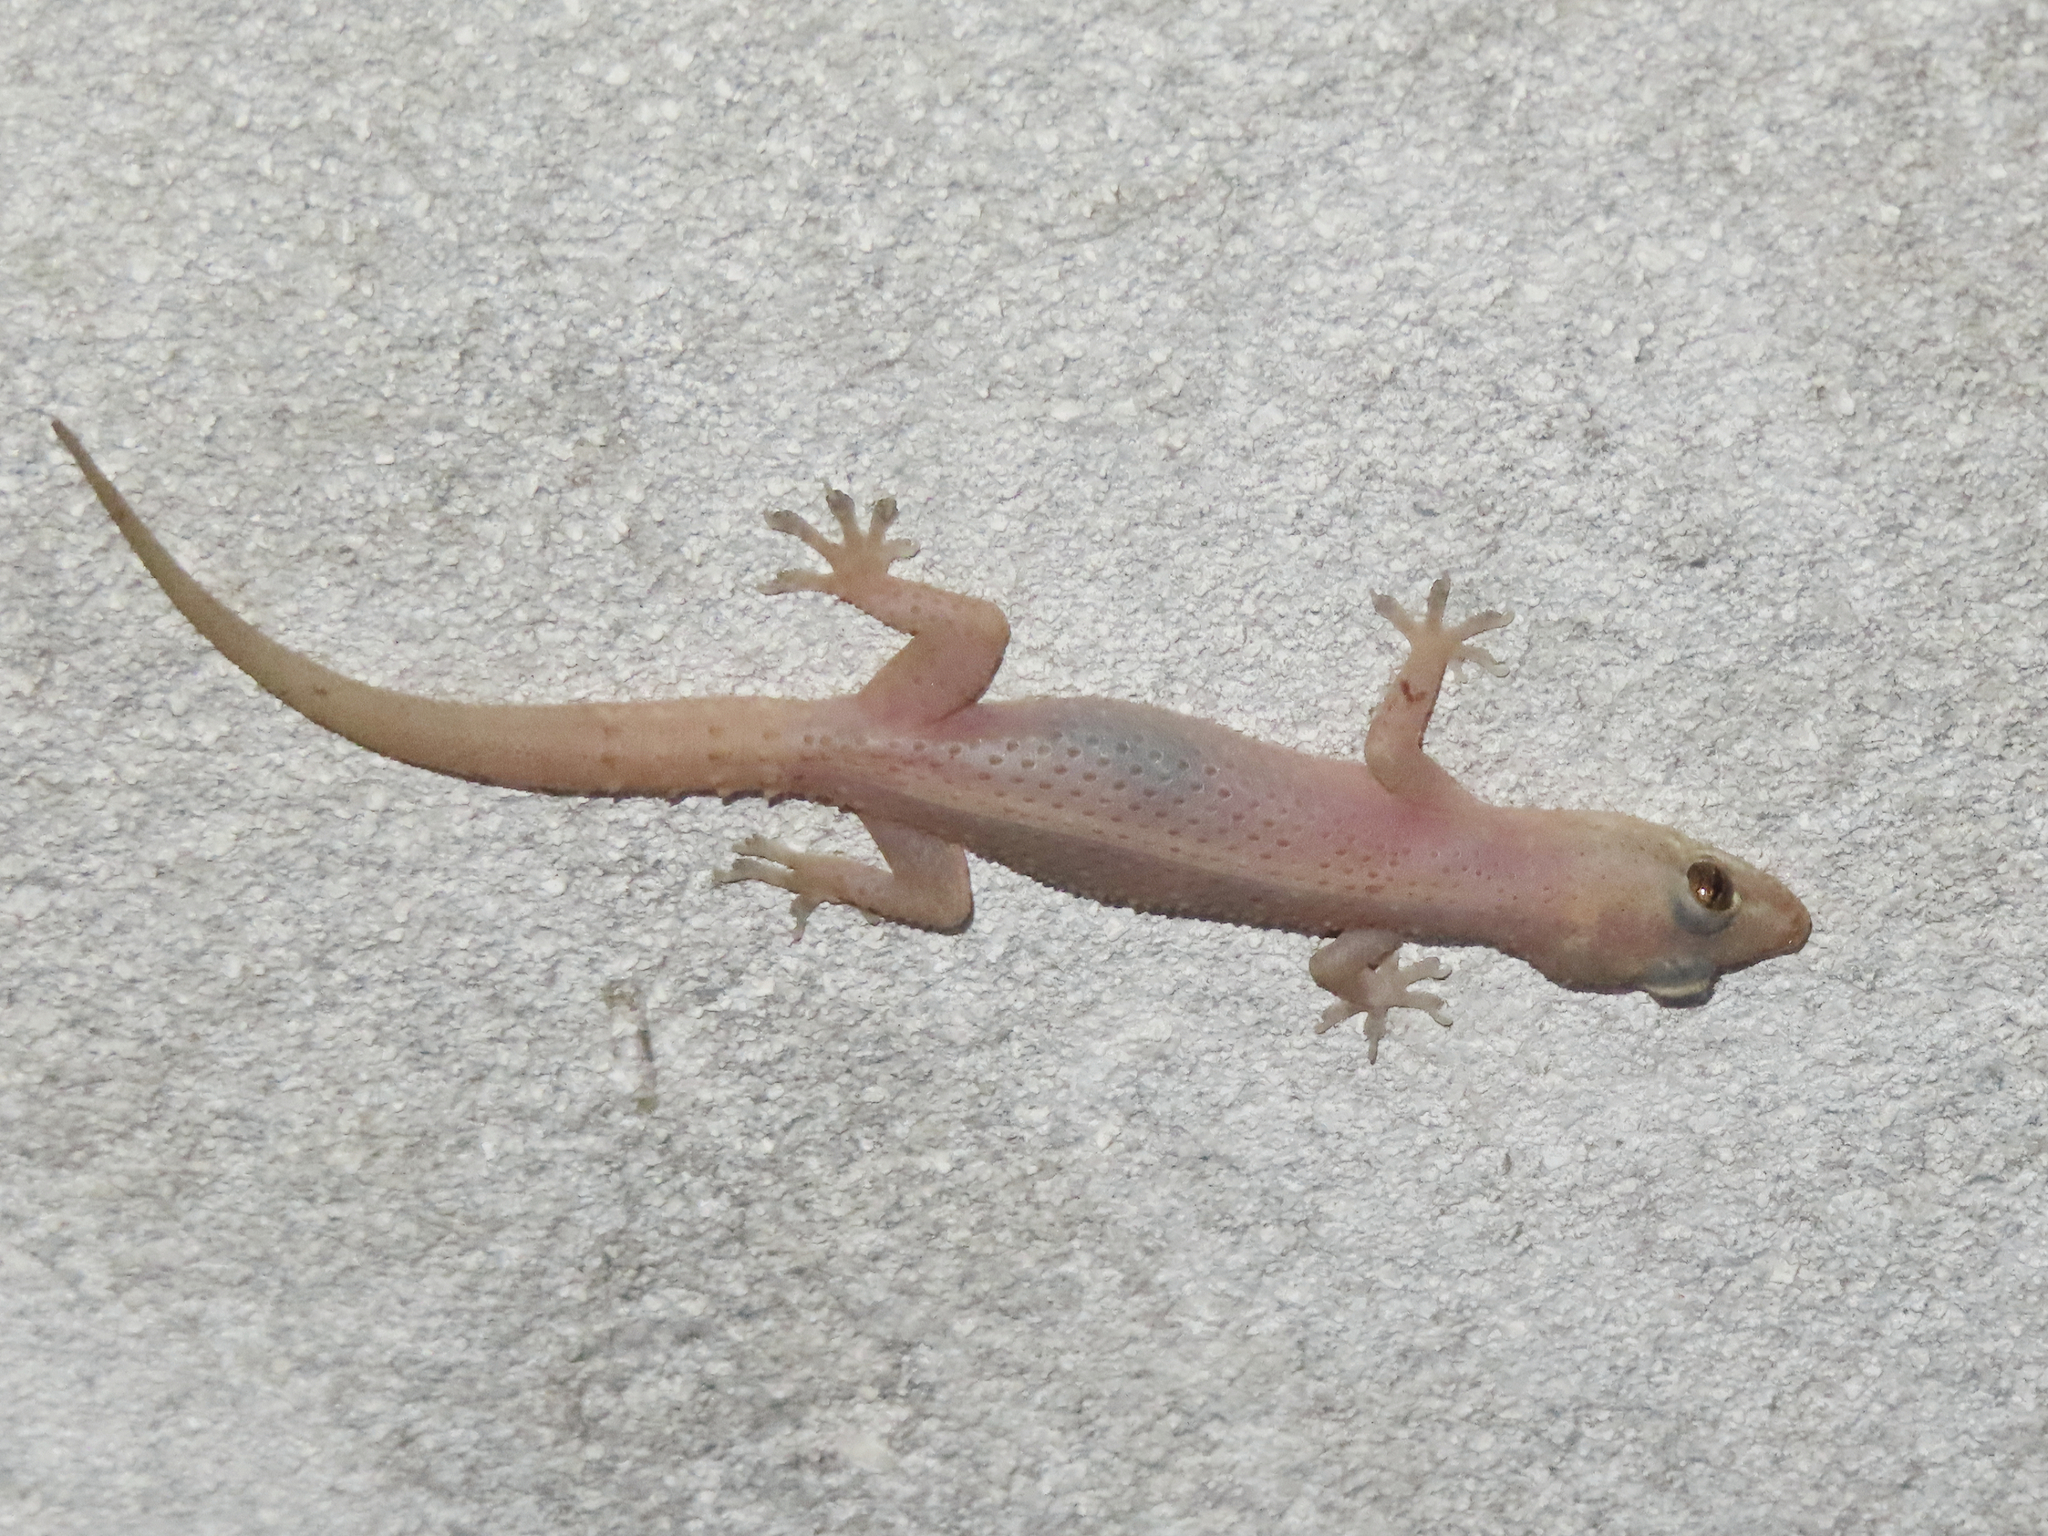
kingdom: Animalia
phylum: Chordata
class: Squamata
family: Gekkonidae
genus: Hemidactylus
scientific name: Hemidactylus parvimaculatus
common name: Spotted house gecko
